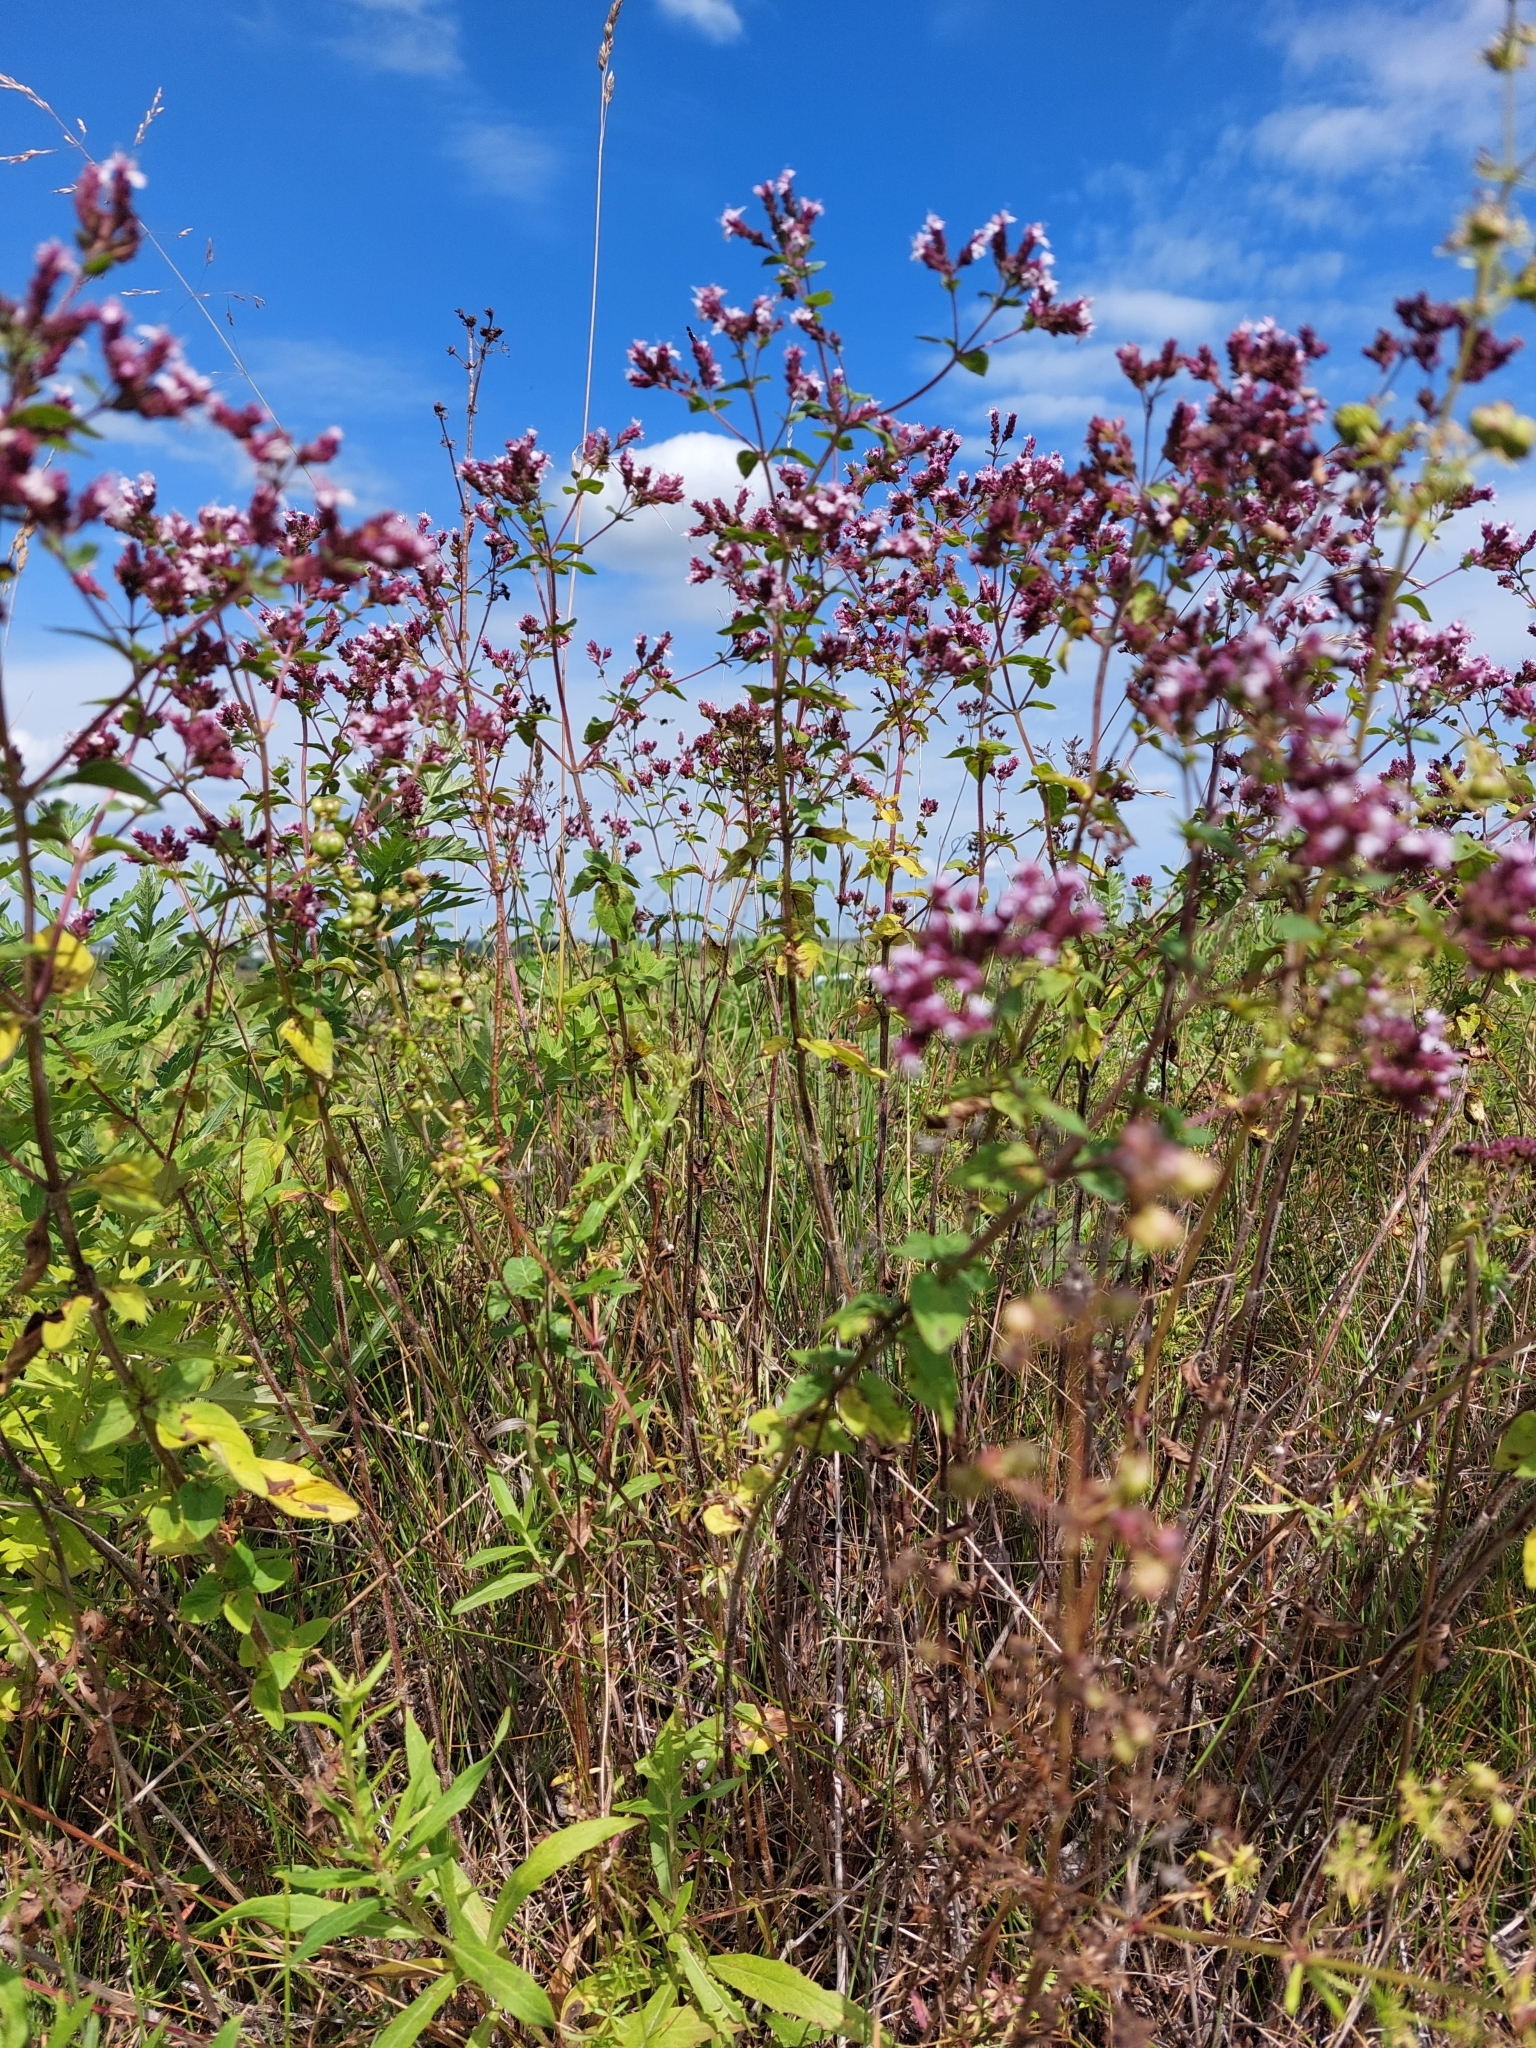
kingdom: Plantae
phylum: Tracheophyta
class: Magnoliopsida
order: Lamiales
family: Lamiaceae
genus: Origanum
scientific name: Origanum vulgare
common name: Wild marjoram
